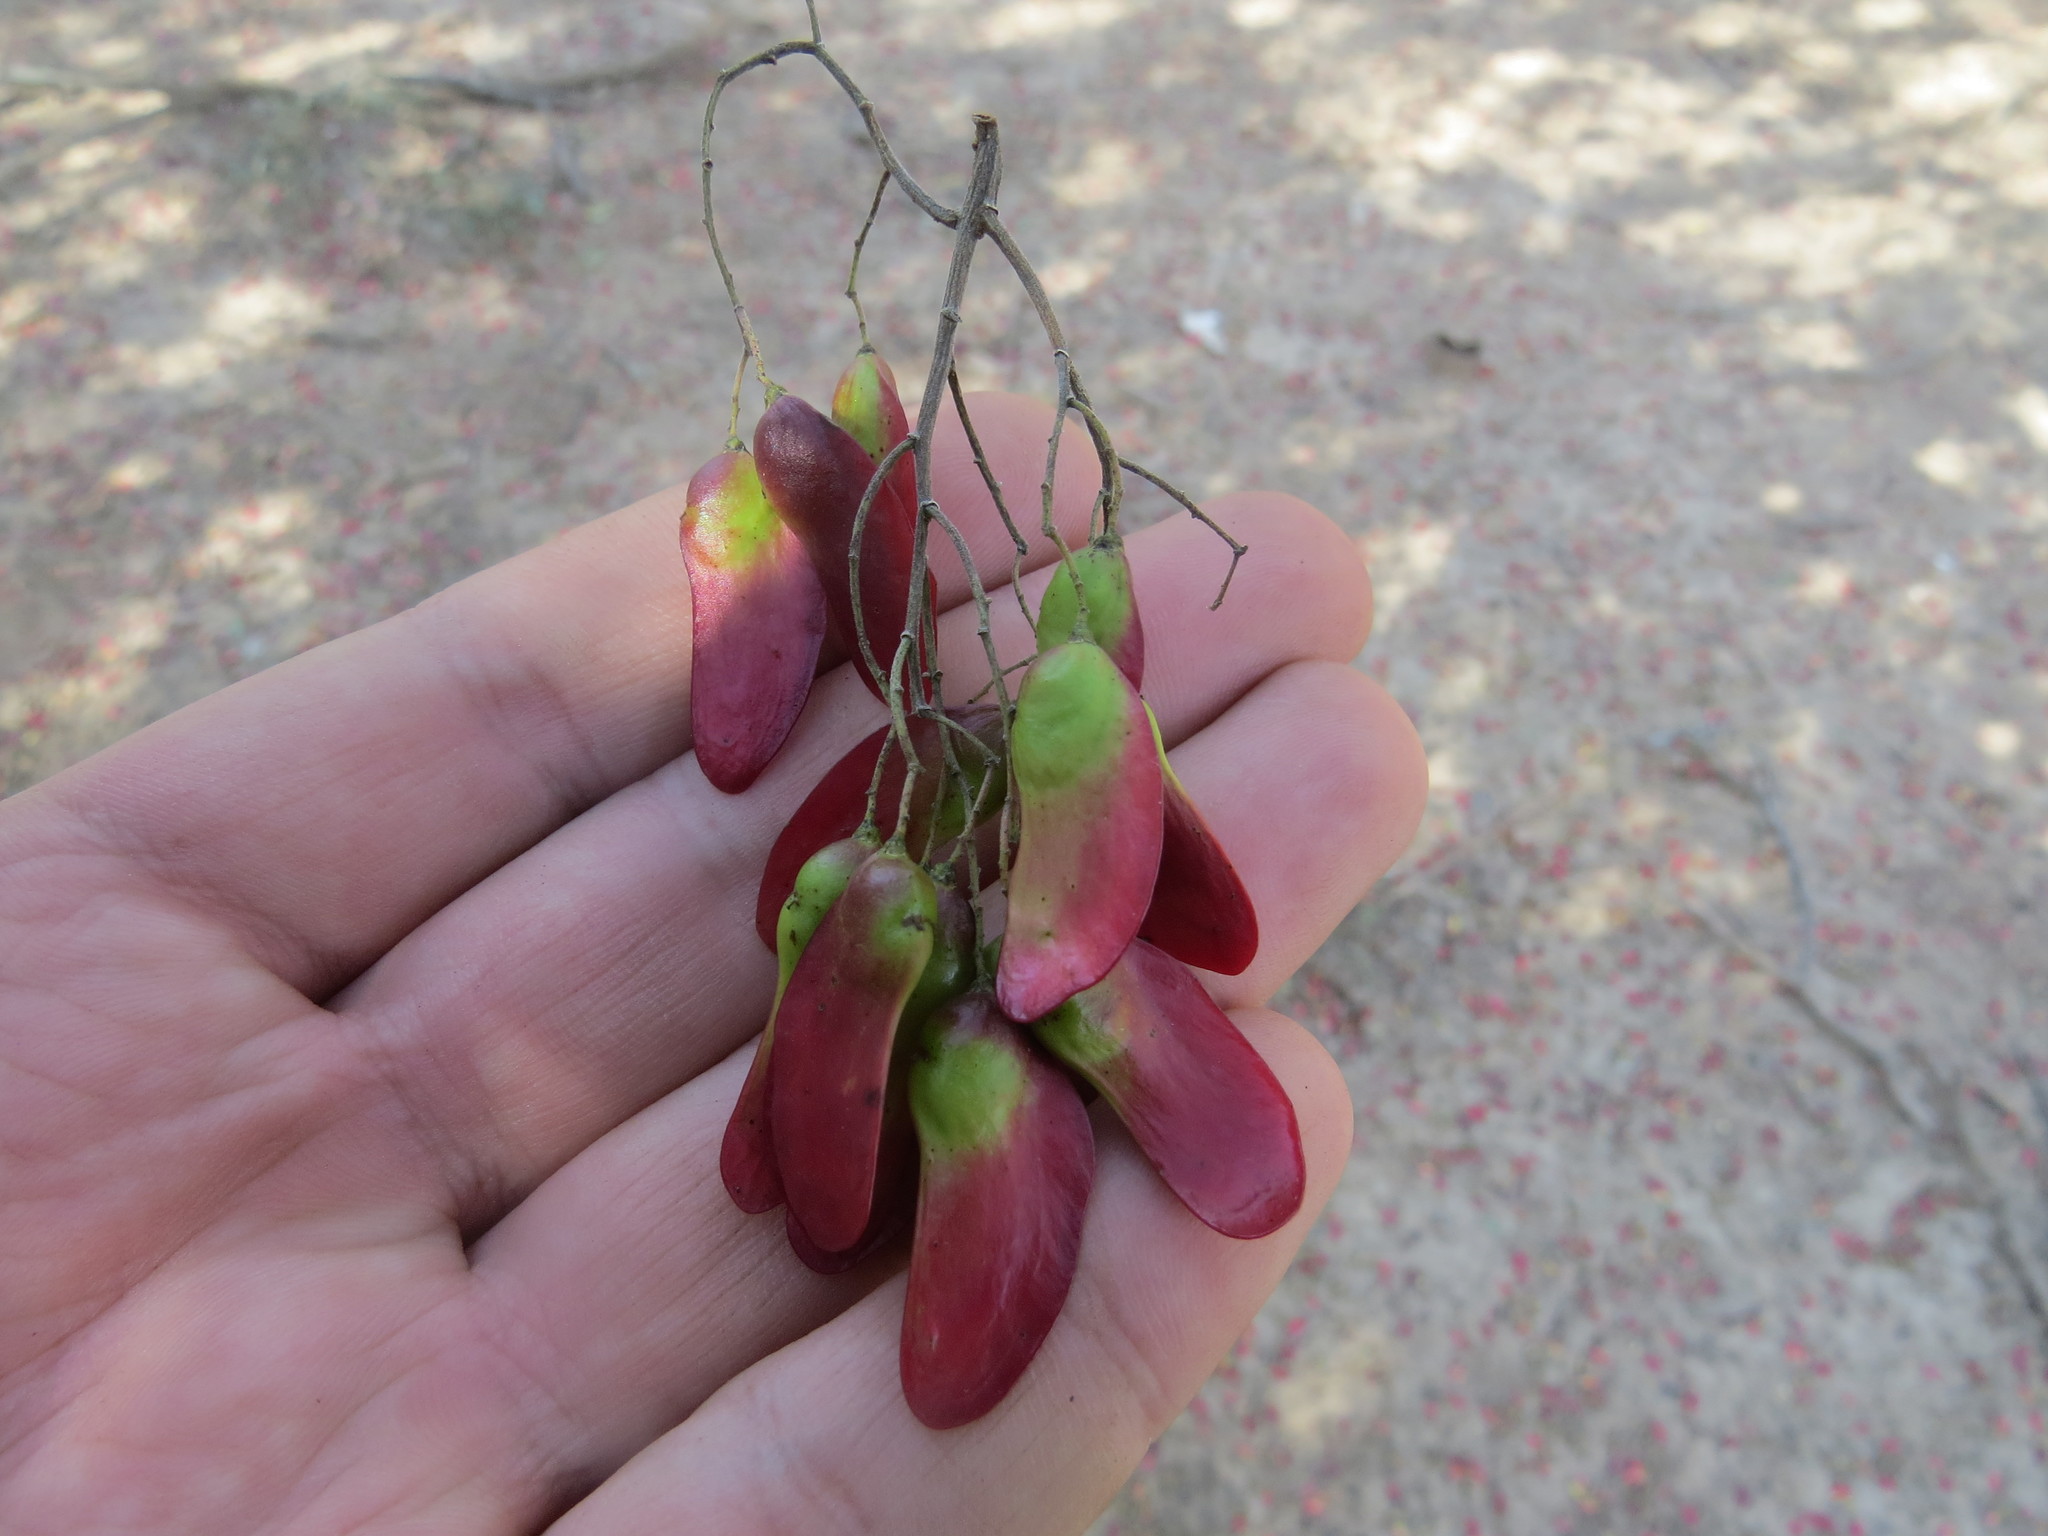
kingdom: Plantae
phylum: Tracheophyta
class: Magnoliopsida
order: Sapindales
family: Anacardiaceae
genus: Schinopsis
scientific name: Schinopsis balansae
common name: Red quebracho
